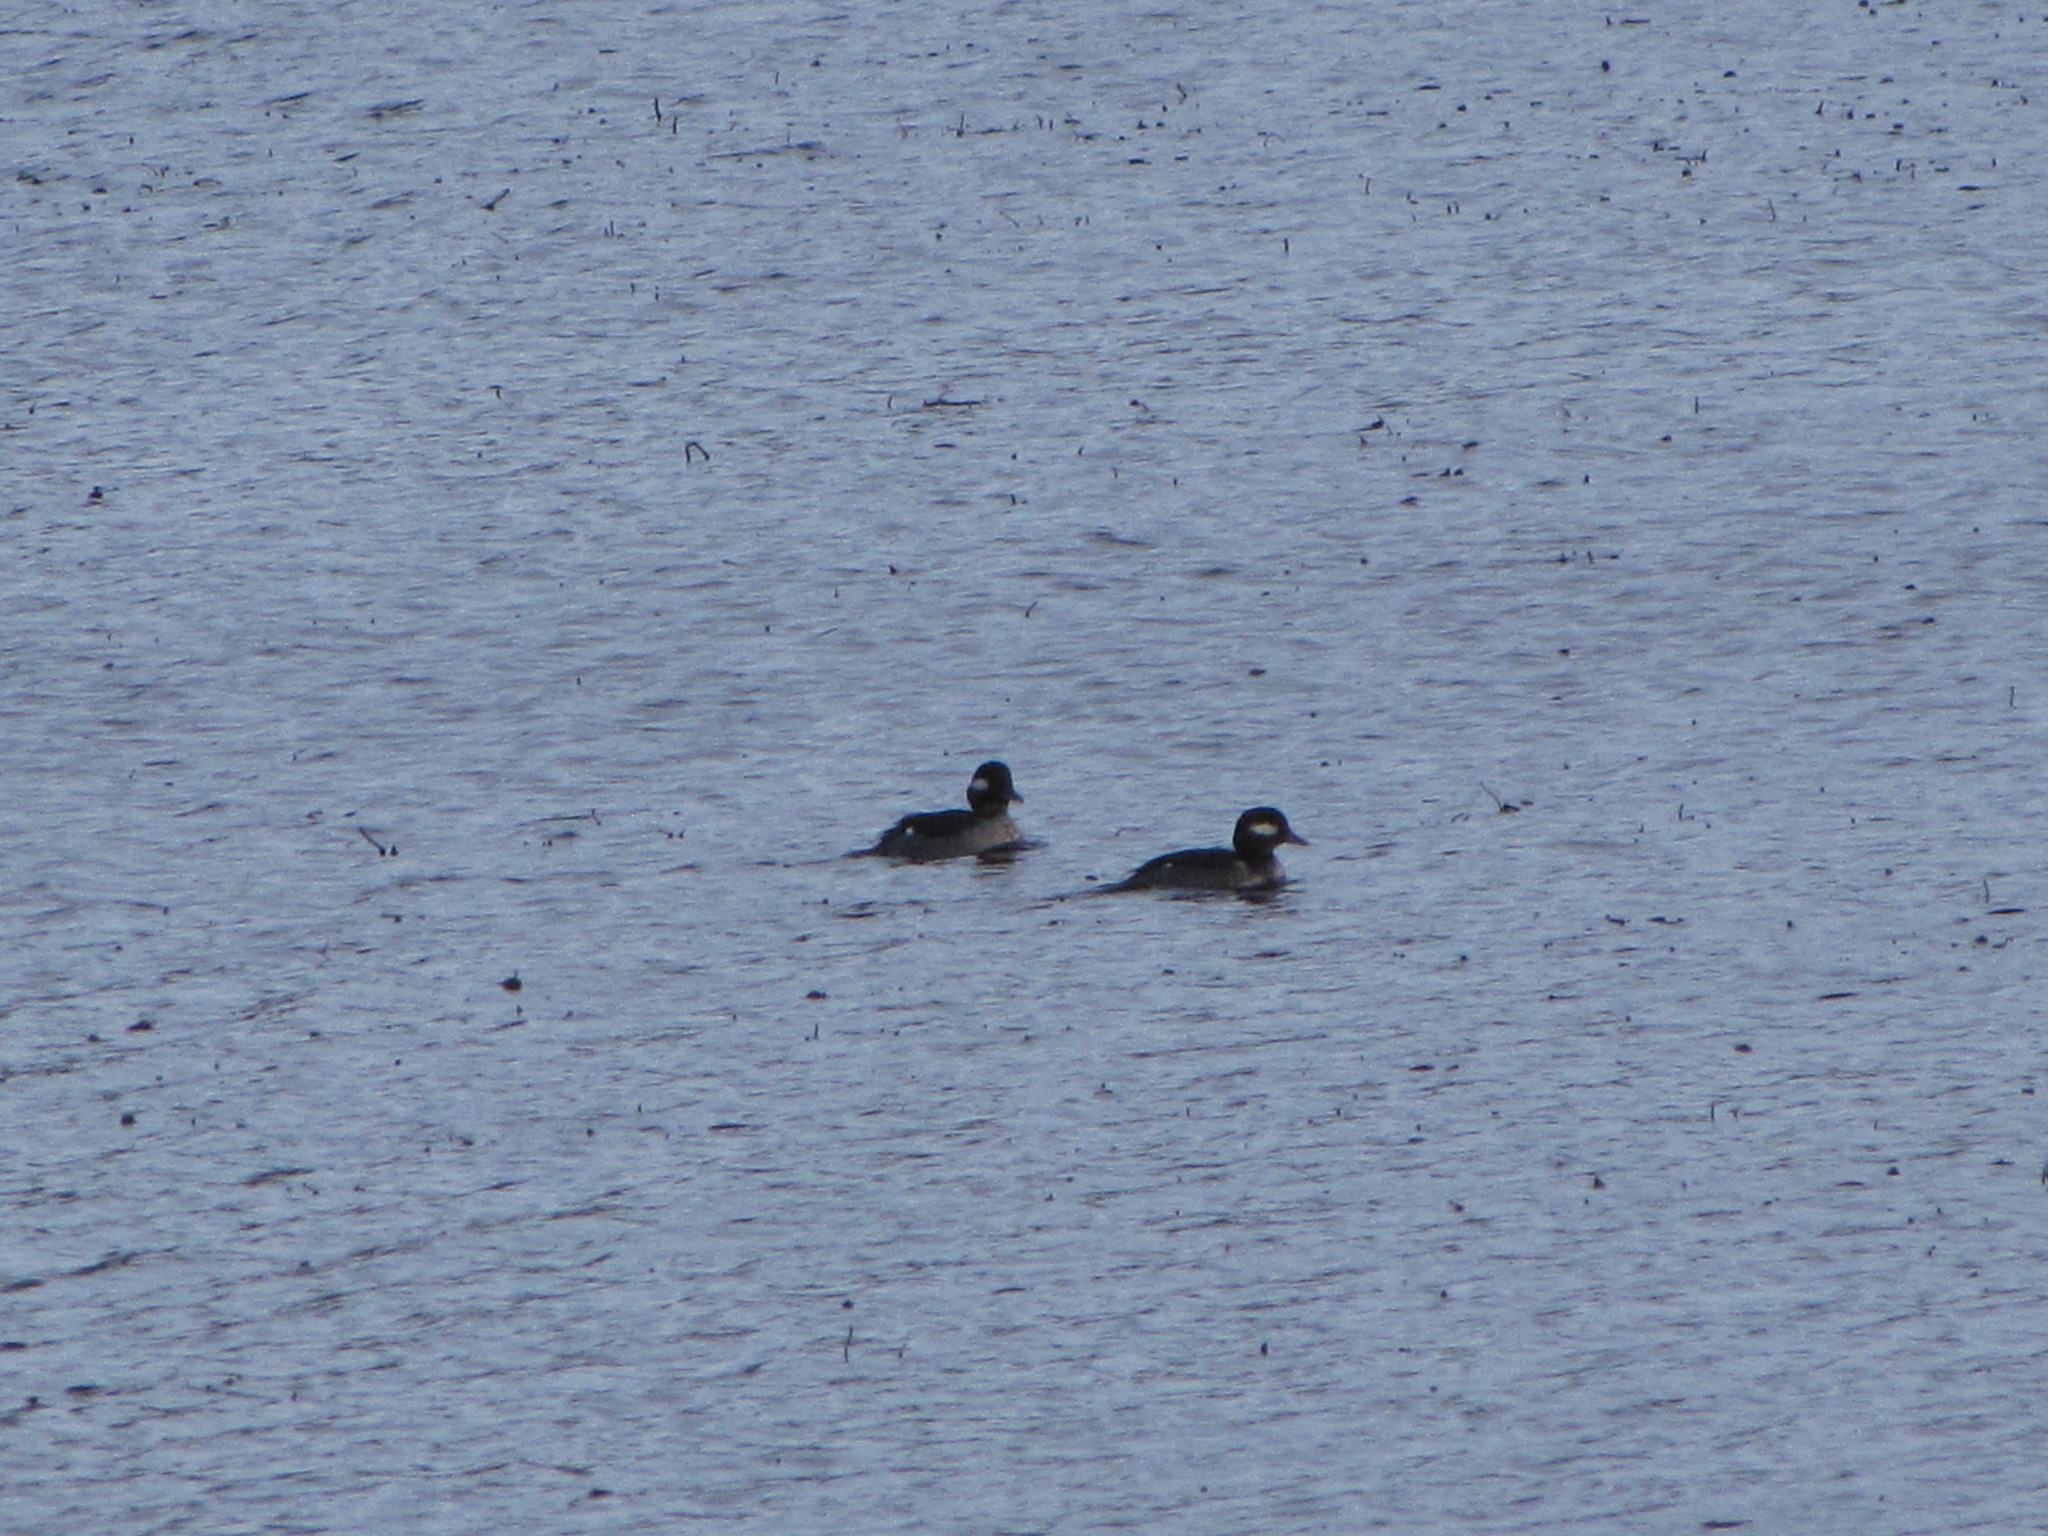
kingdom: Animalia
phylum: Chordata
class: Aves
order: Anseriformes
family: Anatidae
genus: Bucephala
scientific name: Bucephala albeola
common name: Bufflehead
